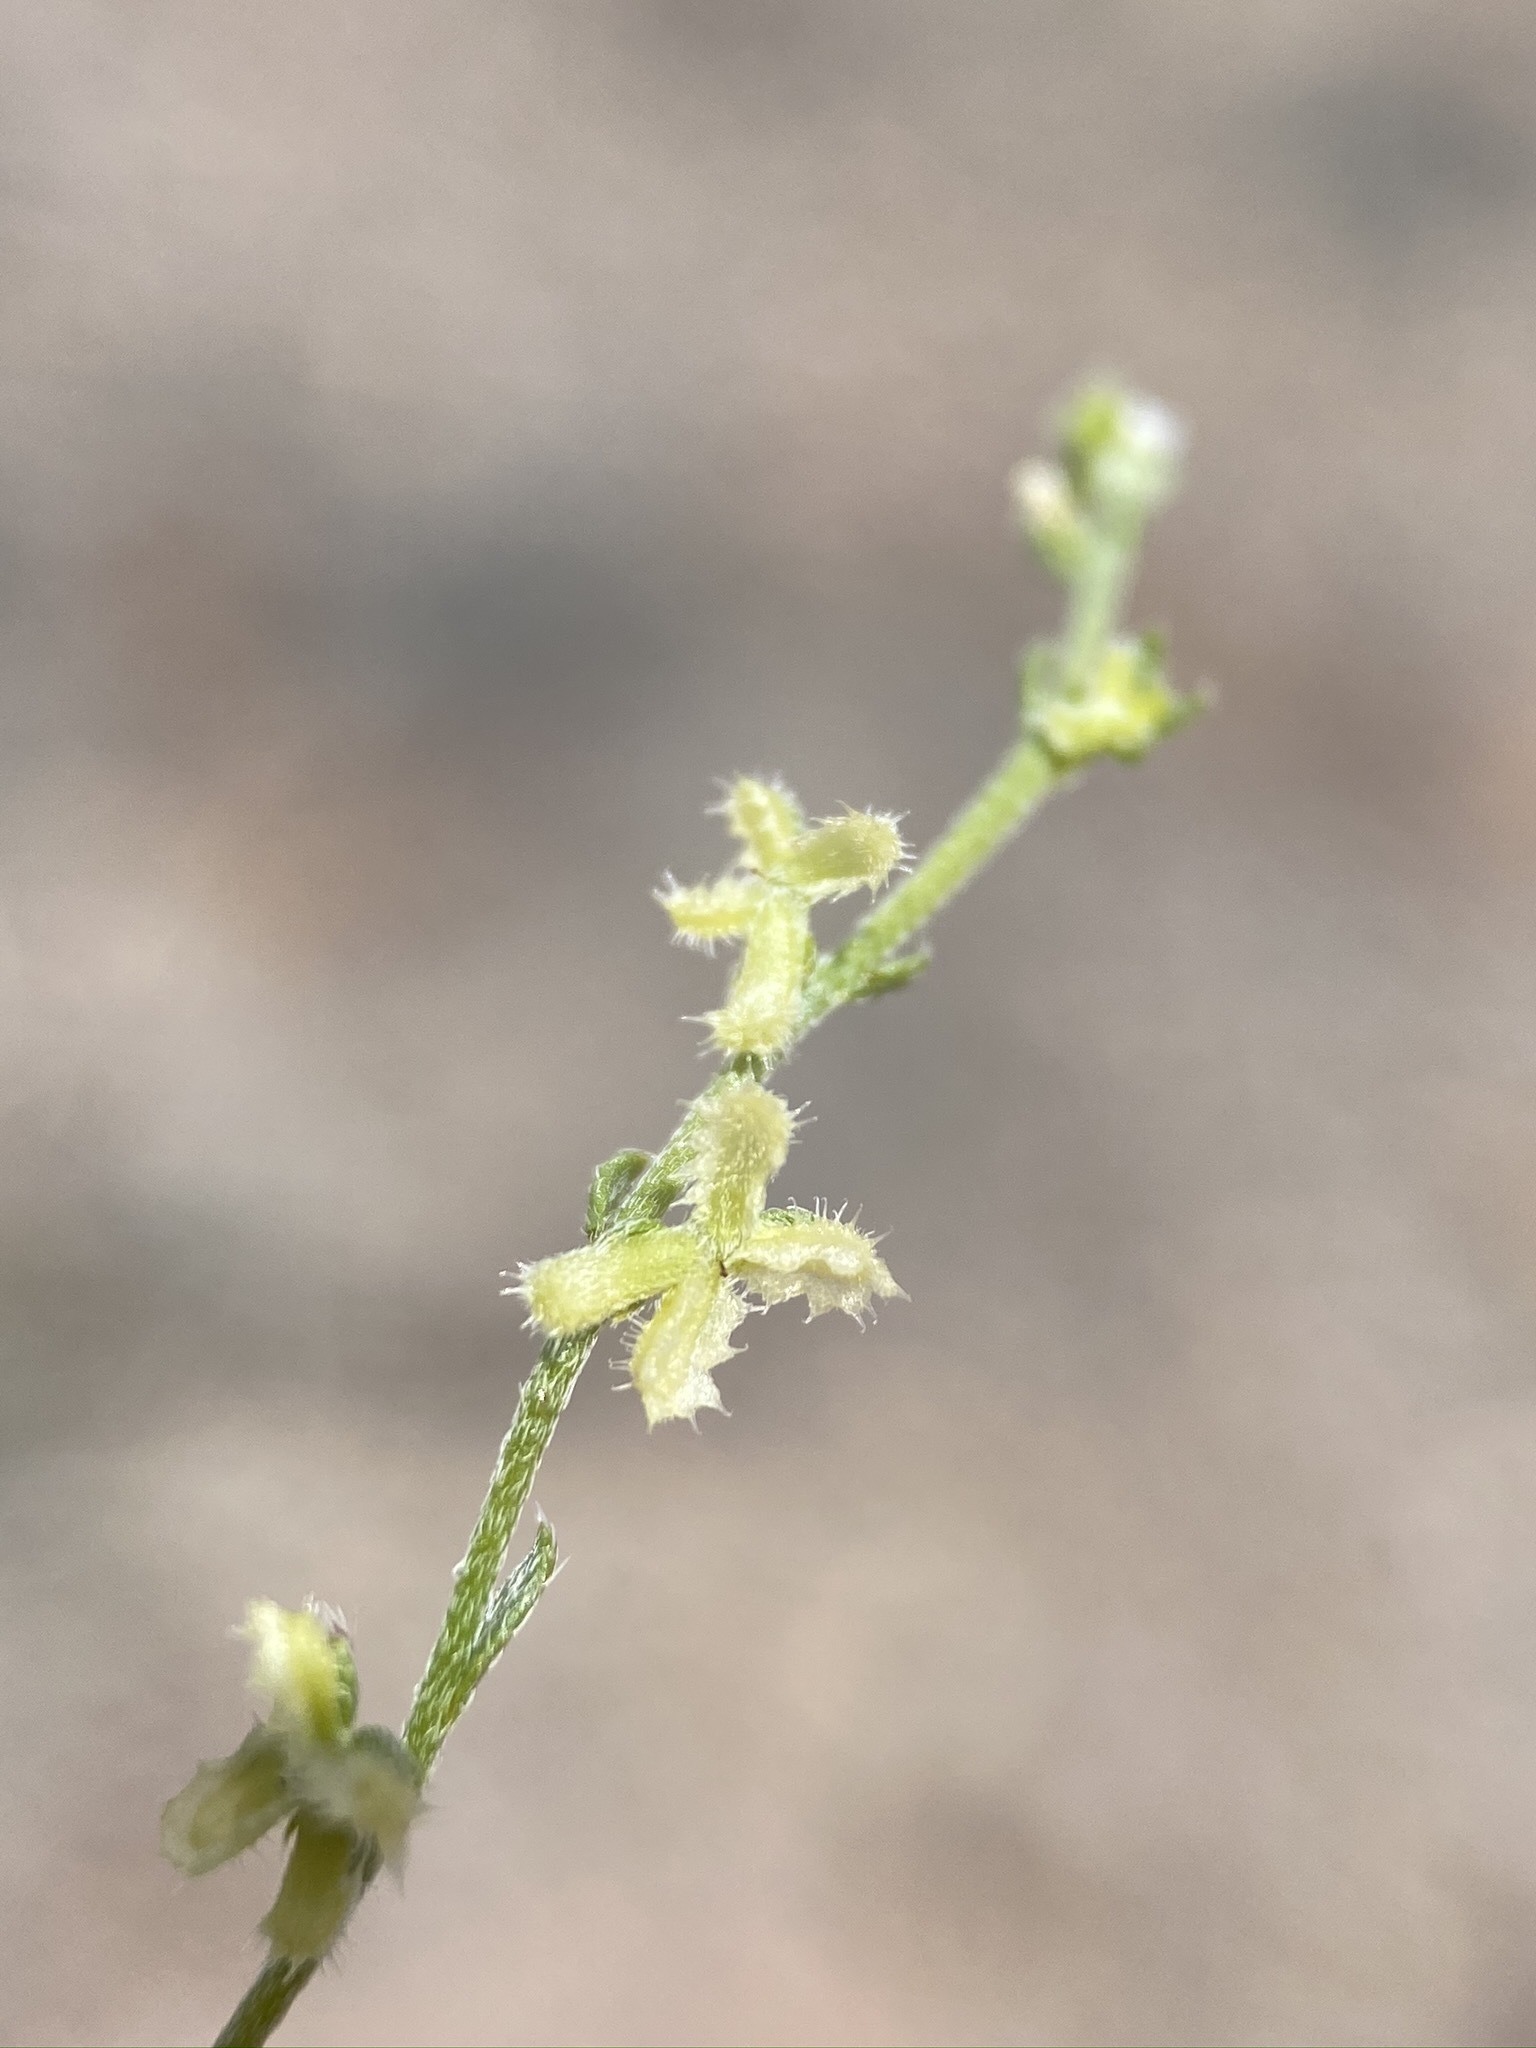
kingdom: Plantae
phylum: Tracheophyta
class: Magnoliopsida
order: Boraginales
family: Boraginaceae
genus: Pectocarya
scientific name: Pectocarya heterocarpa
